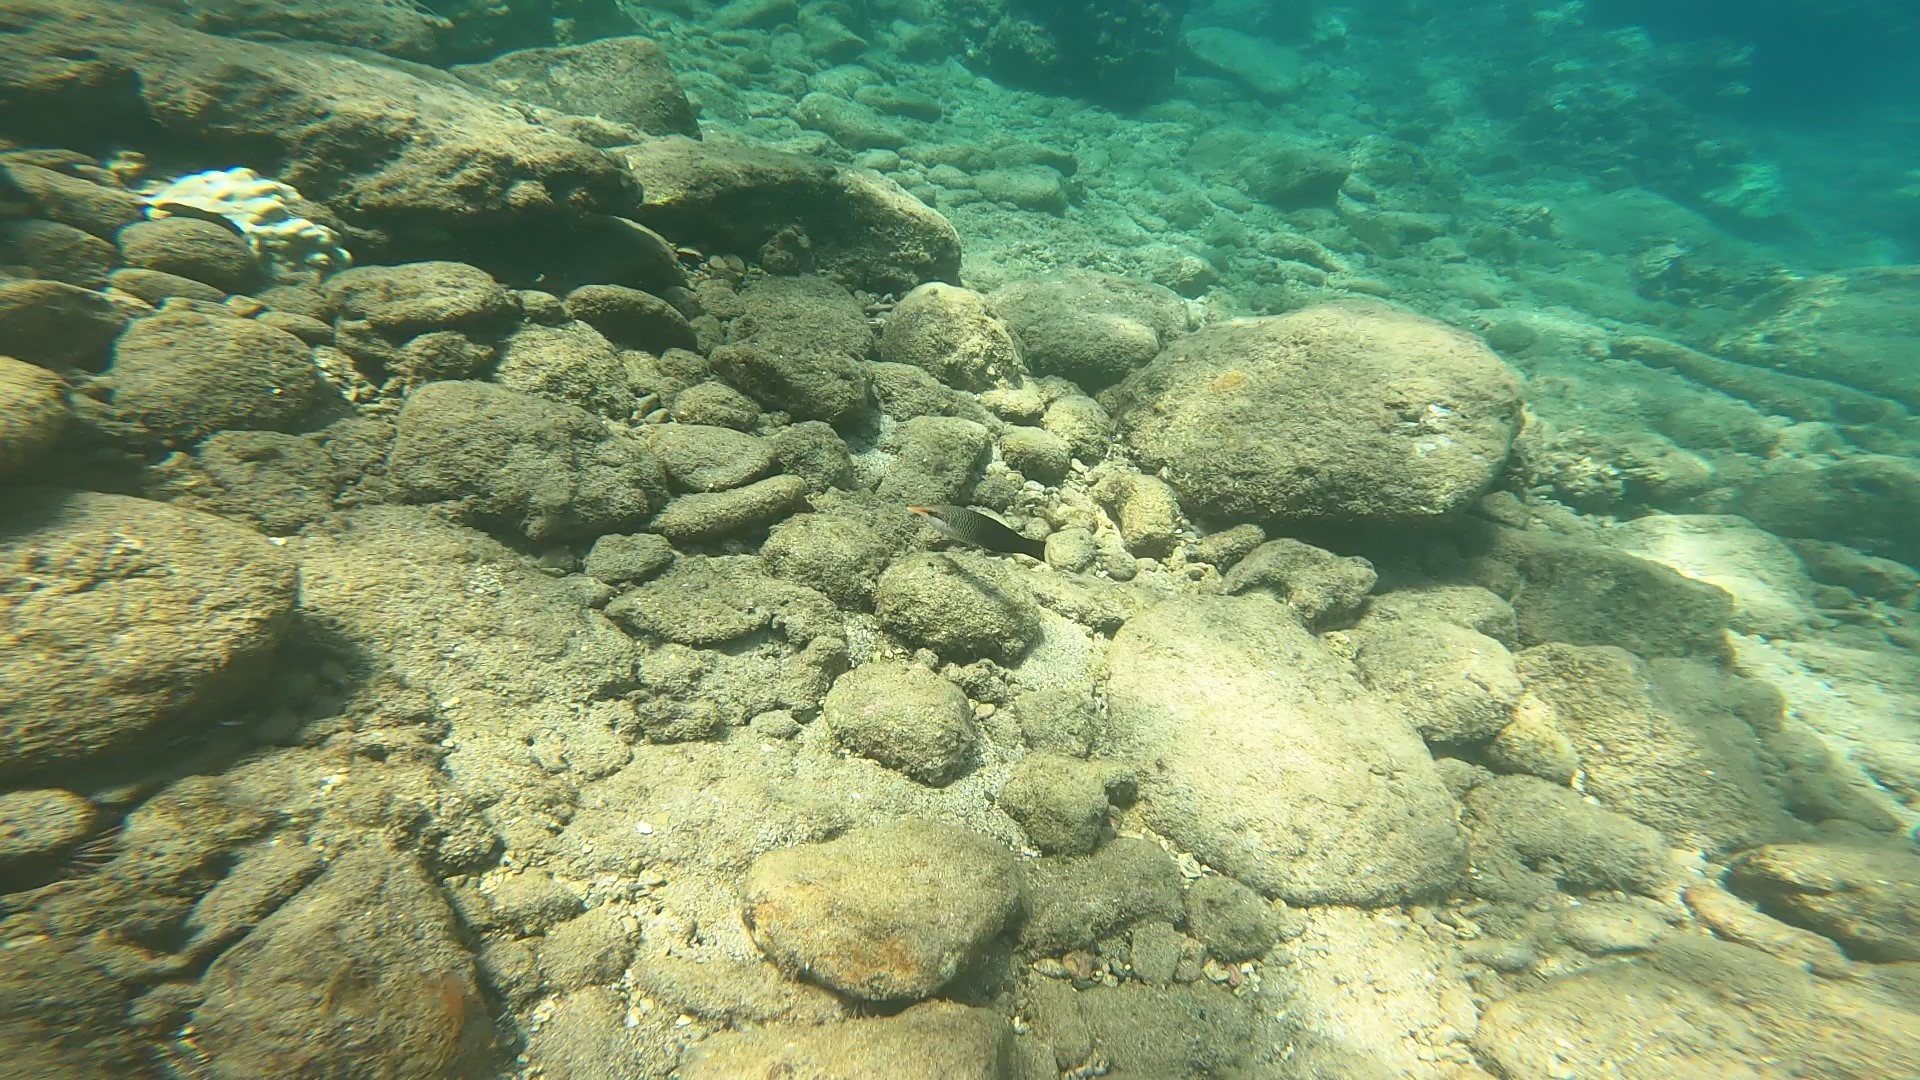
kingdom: Animalia
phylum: Chordata
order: Perciformes
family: Labridae
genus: Gomphosus
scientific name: Gomphosus varius
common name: Bird wrasse
